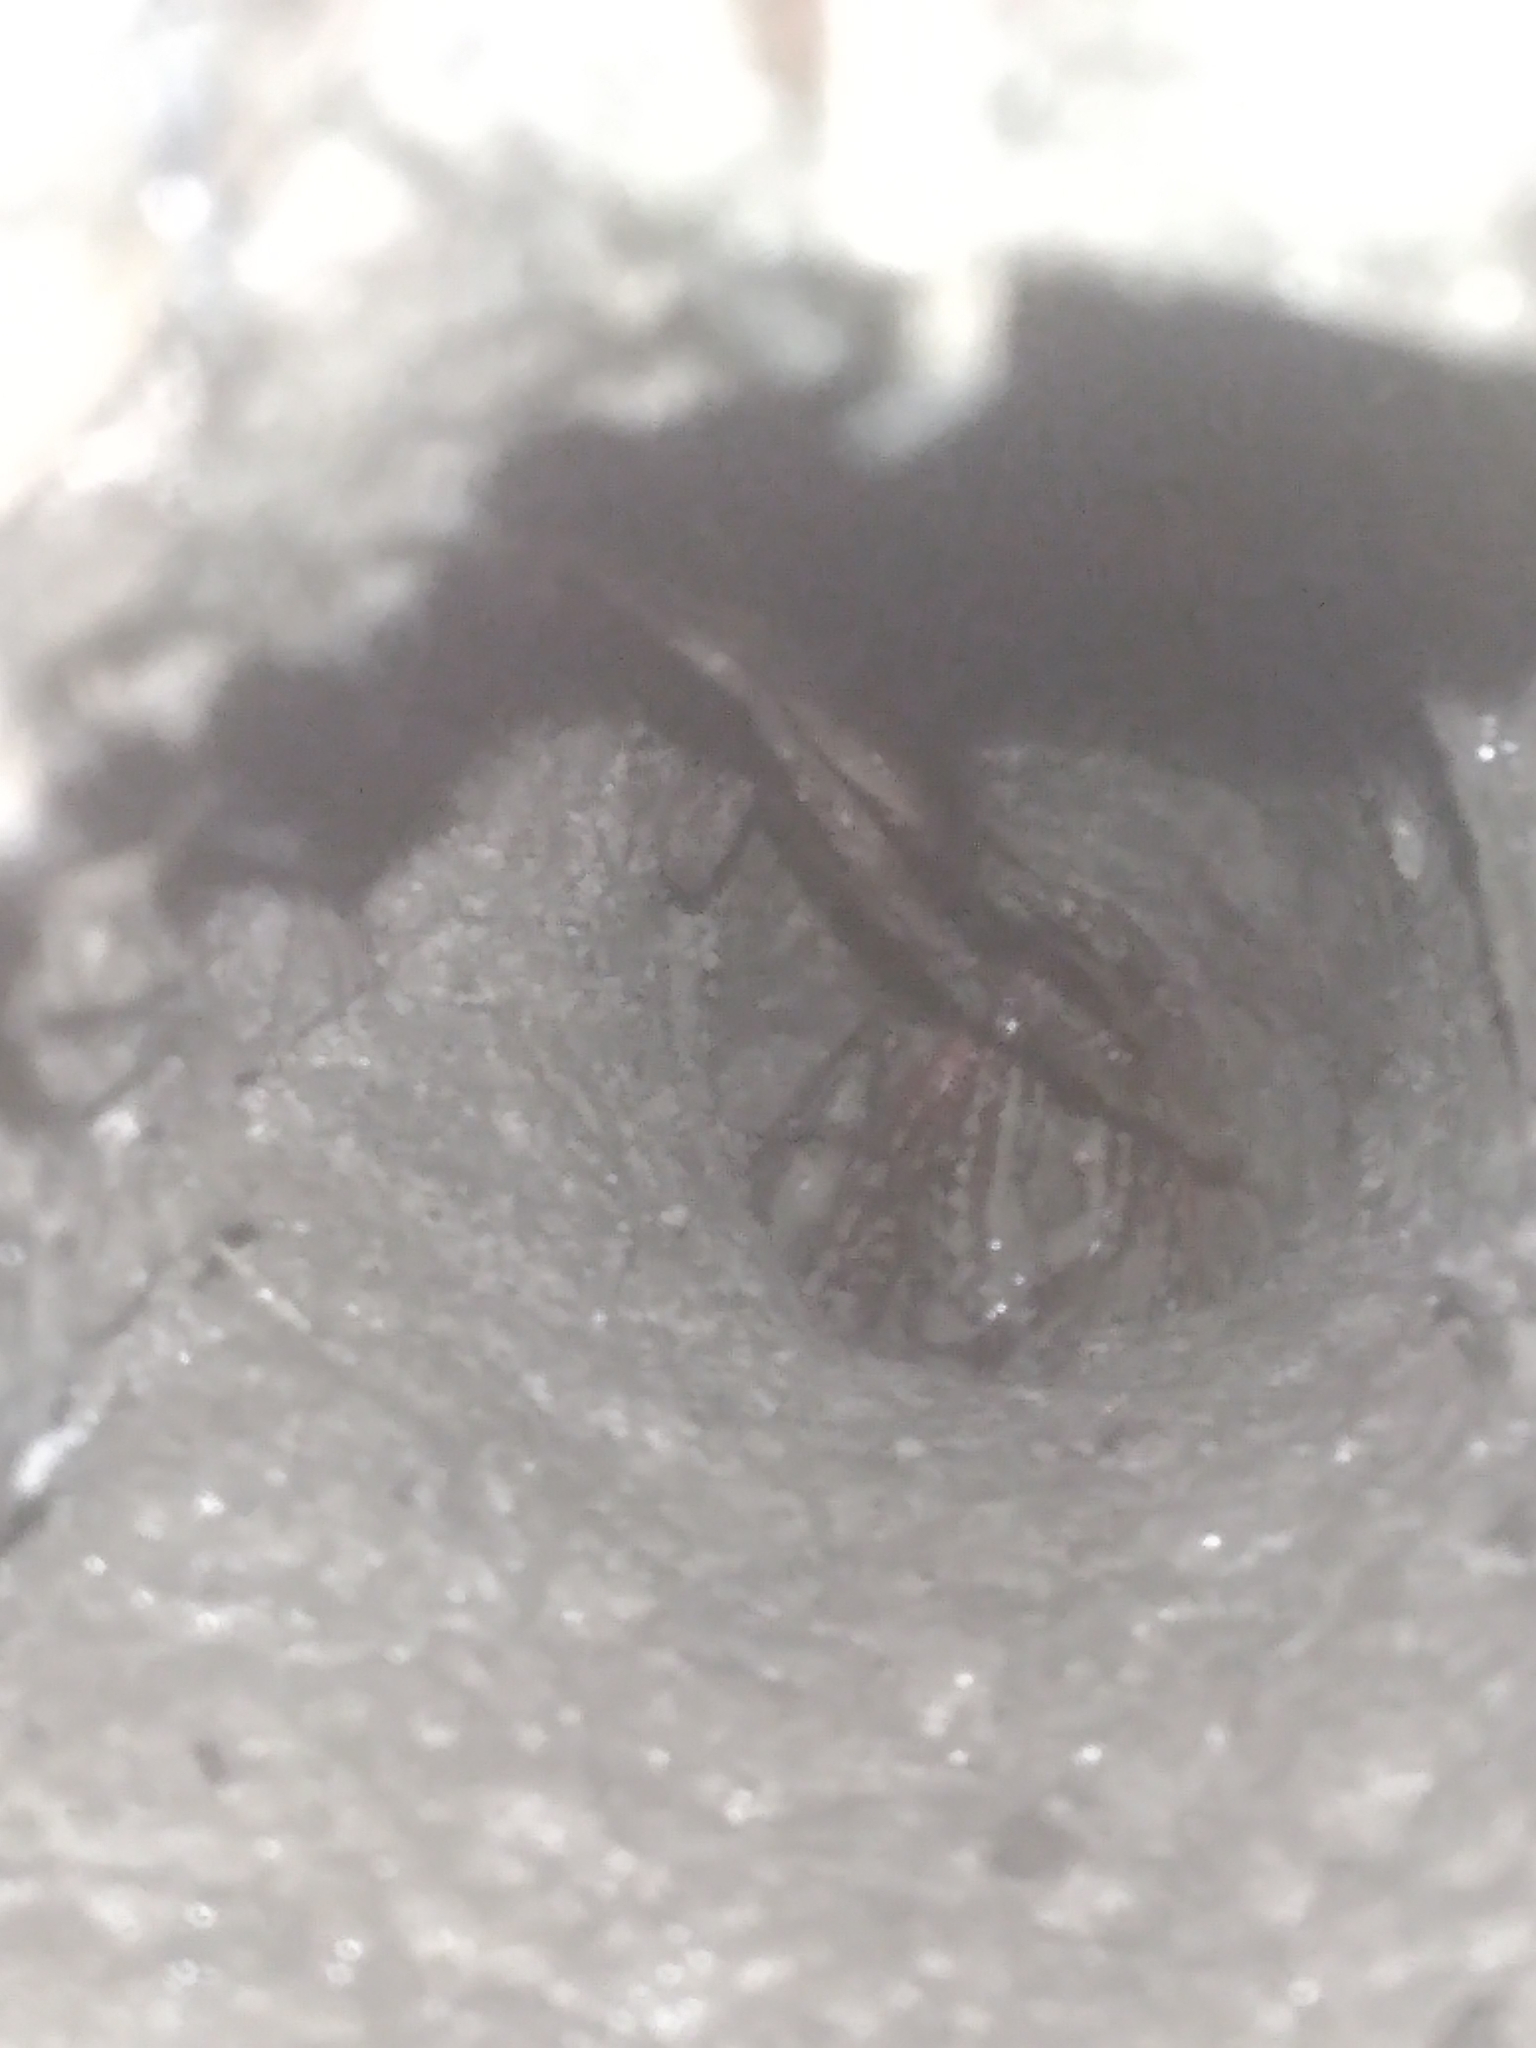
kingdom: Animalia
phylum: Arthropoda
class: Malacostraca
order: Decapoda
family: Cambaridae
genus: Lacunicambarus
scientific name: Lacunicambarus diogenes
